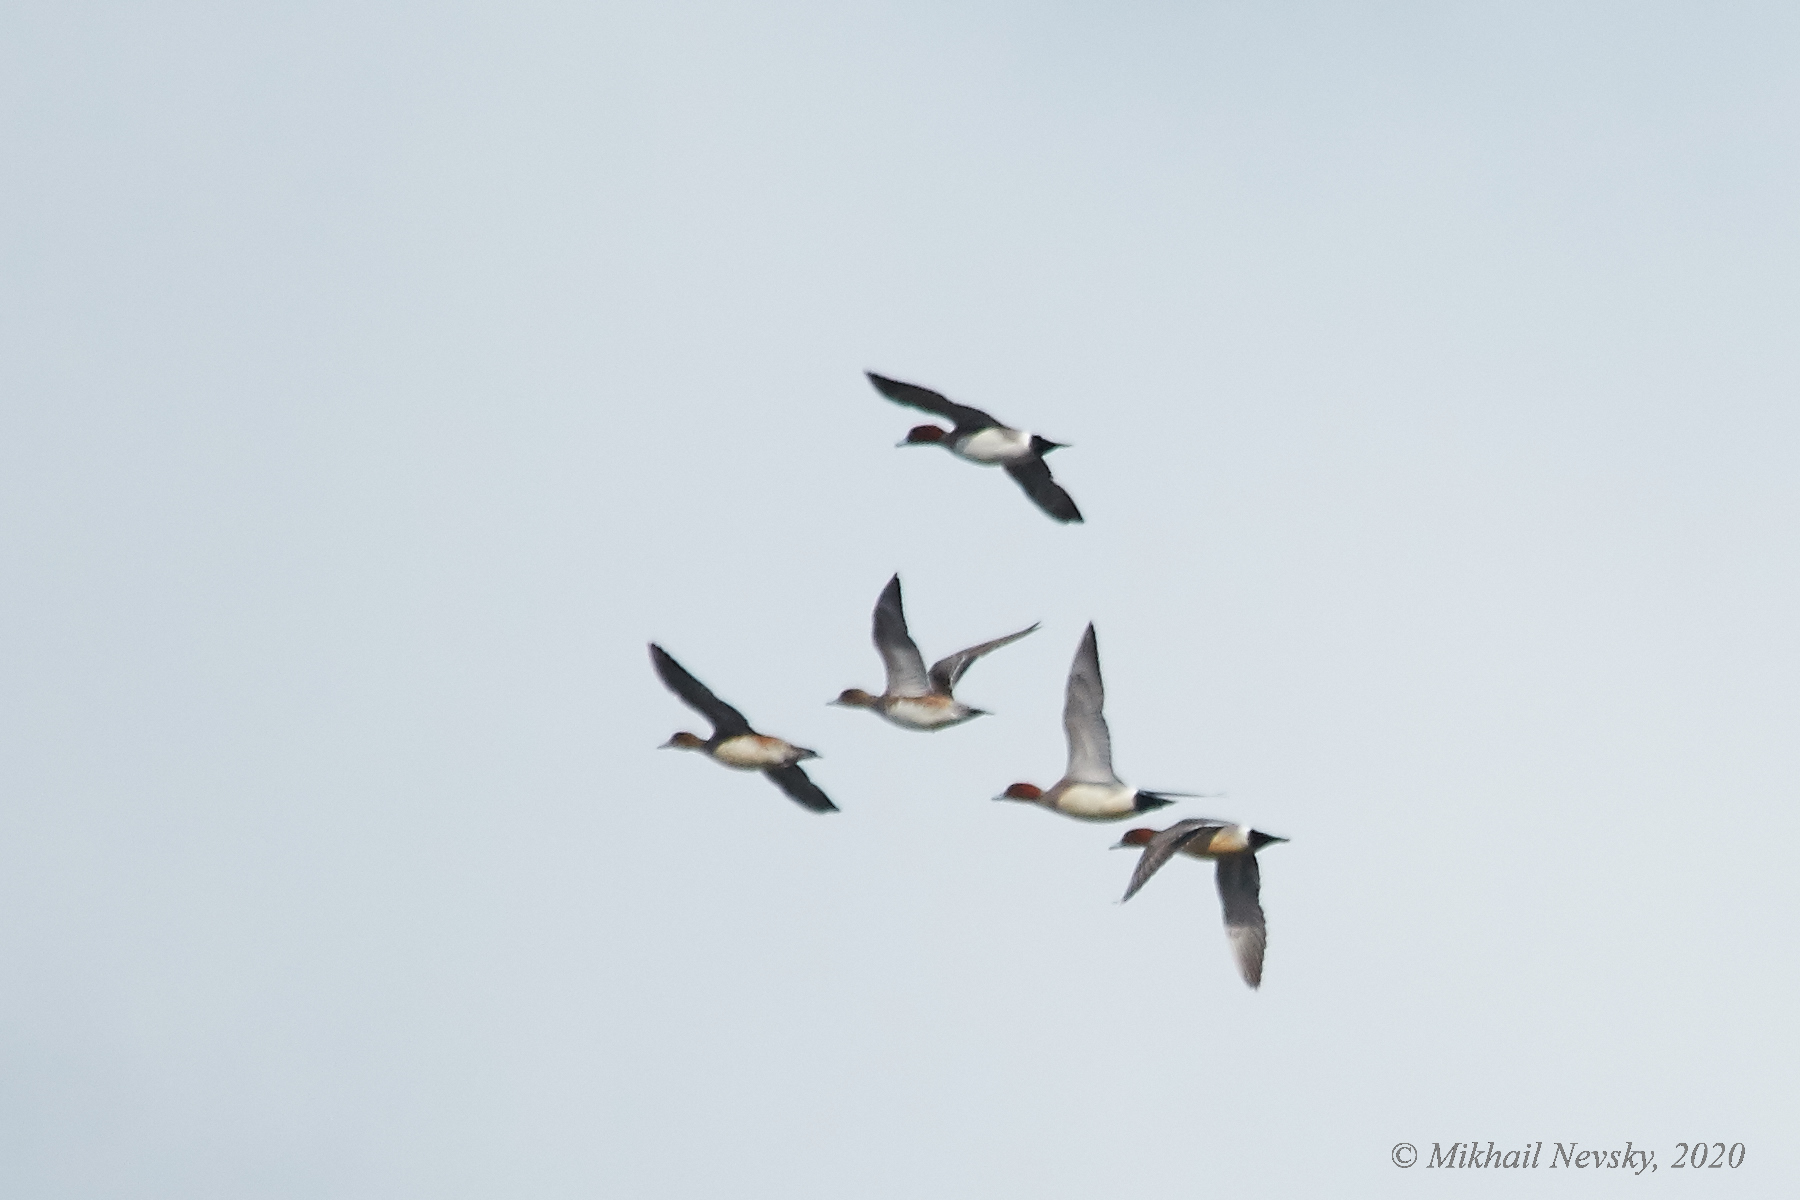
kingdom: Animalia
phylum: Chordata
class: Aves
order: Anseriformes
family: Anatidae
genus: Mareca
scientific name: Mareca penelope
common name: Eurasian wigeon
